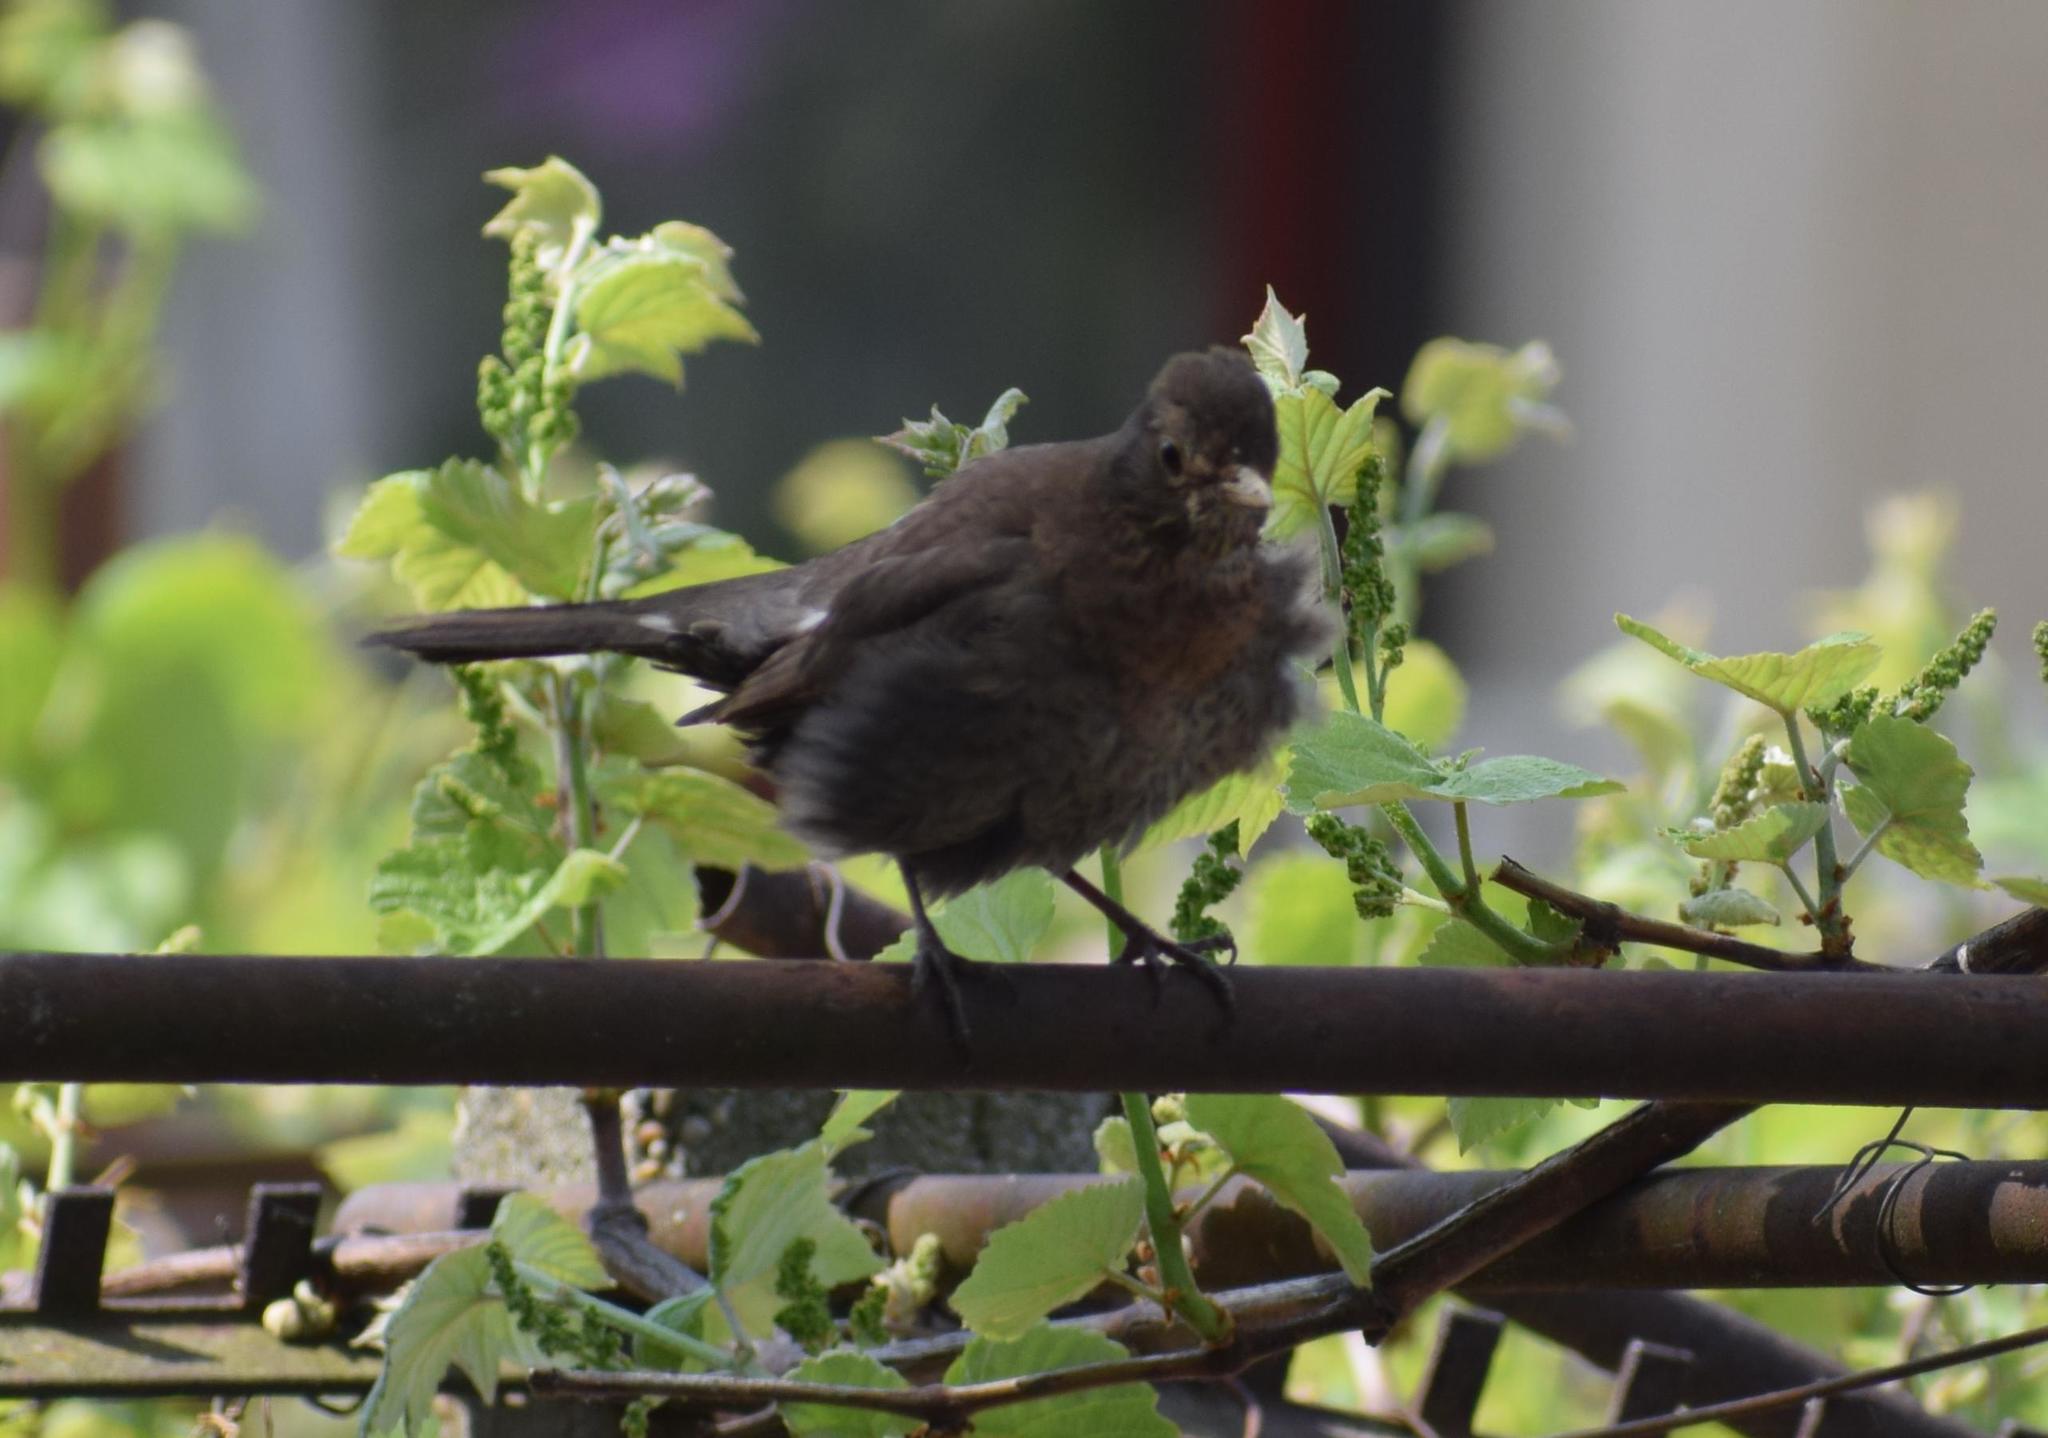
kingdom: Animalia
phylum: Chordata
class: Aves
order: Passeriformes
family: Turdidae
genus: Turdus
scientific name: Turdus merula
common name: Common blackbird
